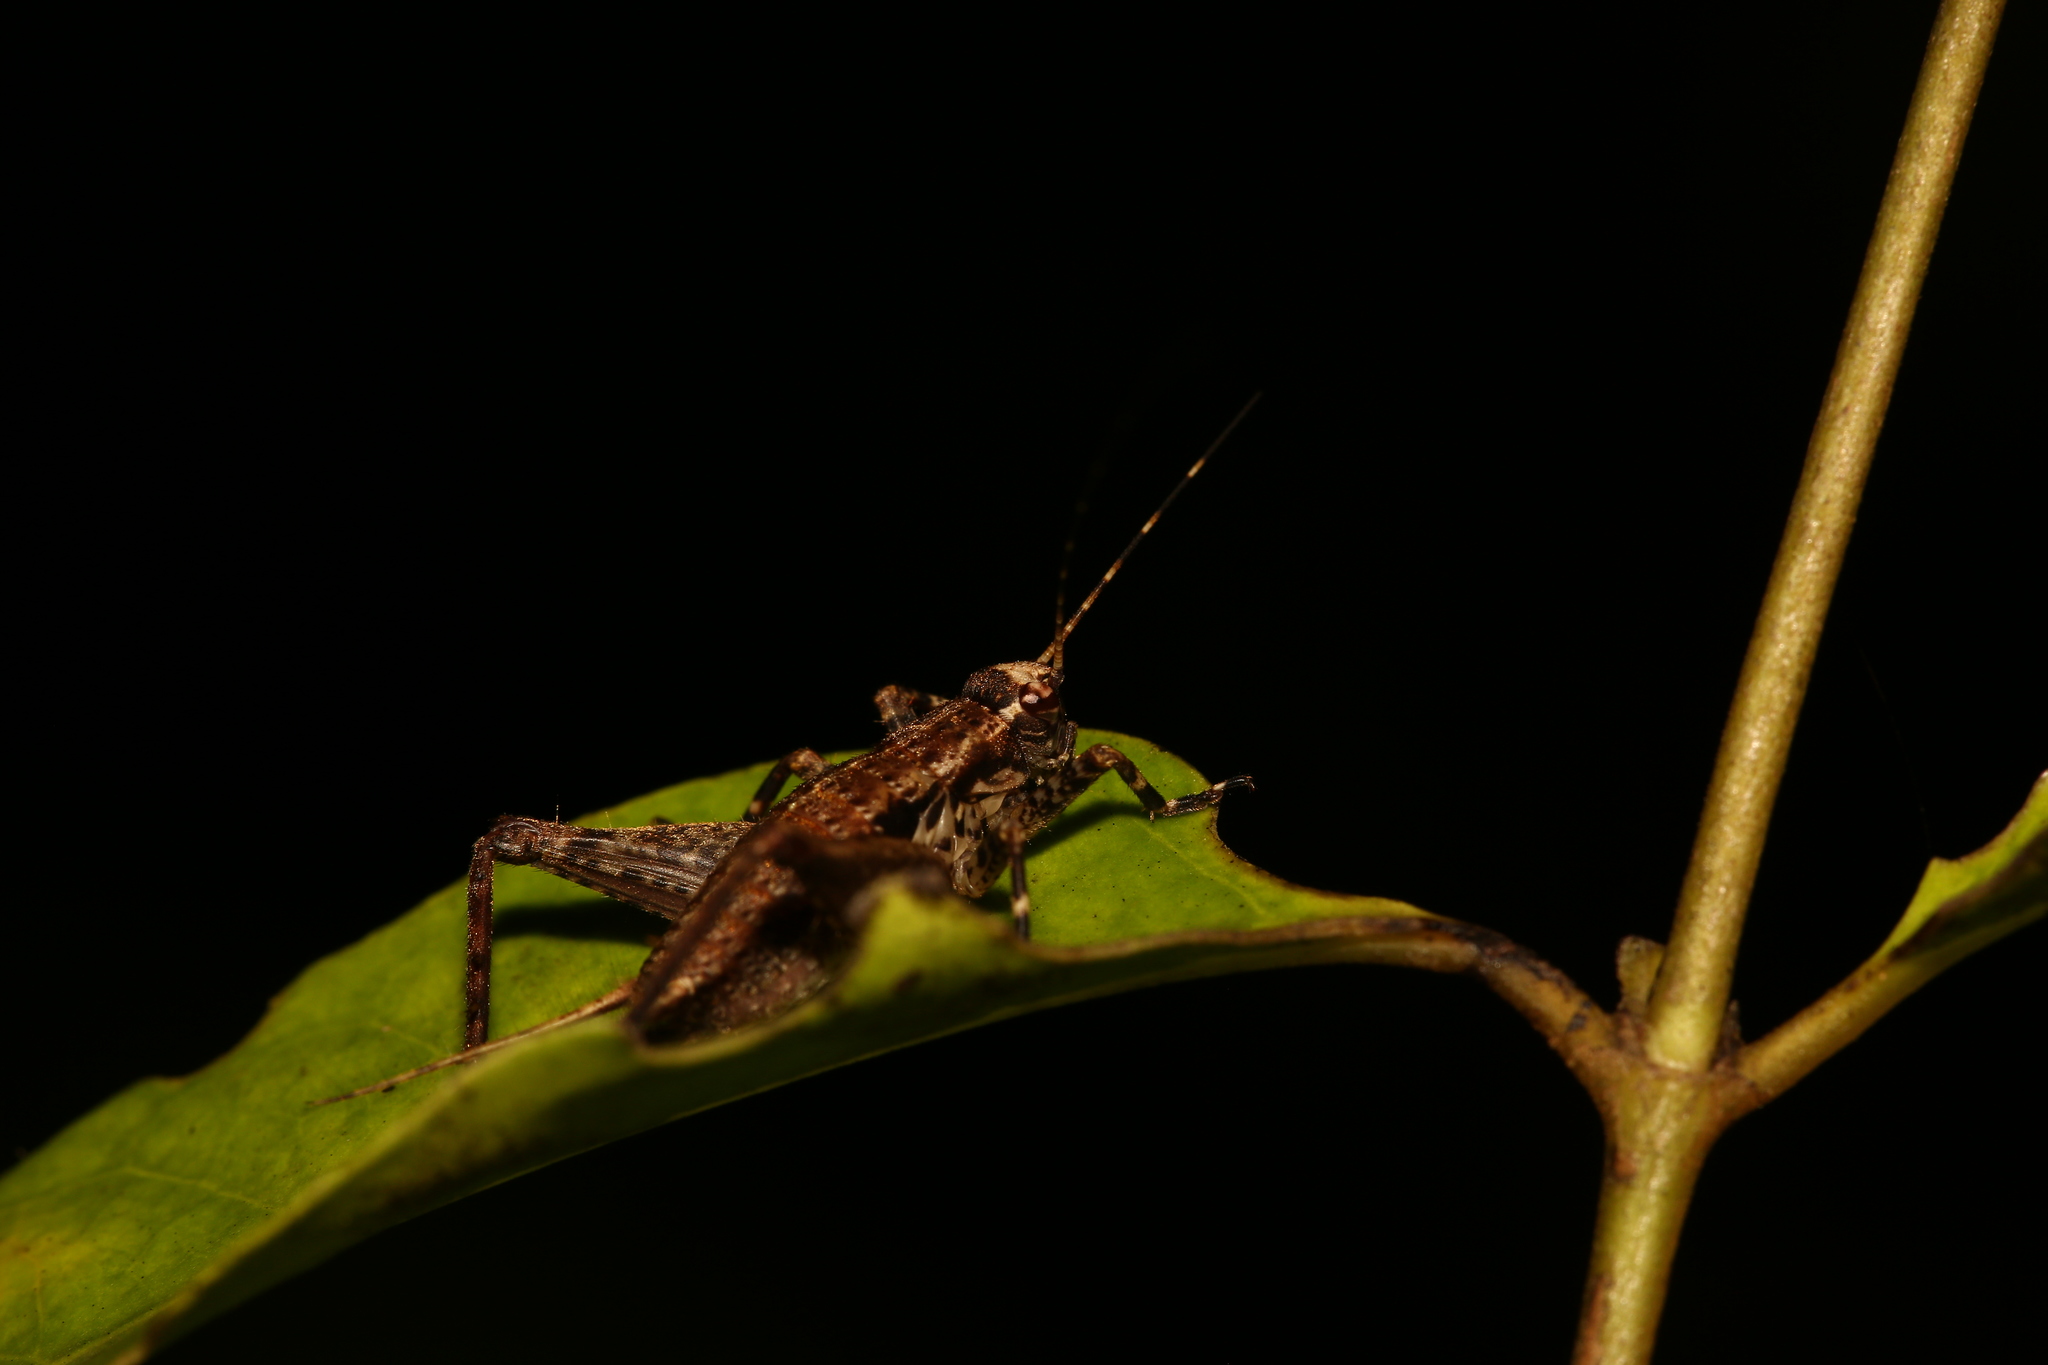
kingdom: Animalia
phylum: Arthropoda
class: Insecta
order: Orthoptera
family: Gryllidae
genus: Agnotecous
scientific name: Agnotecous albifrons
